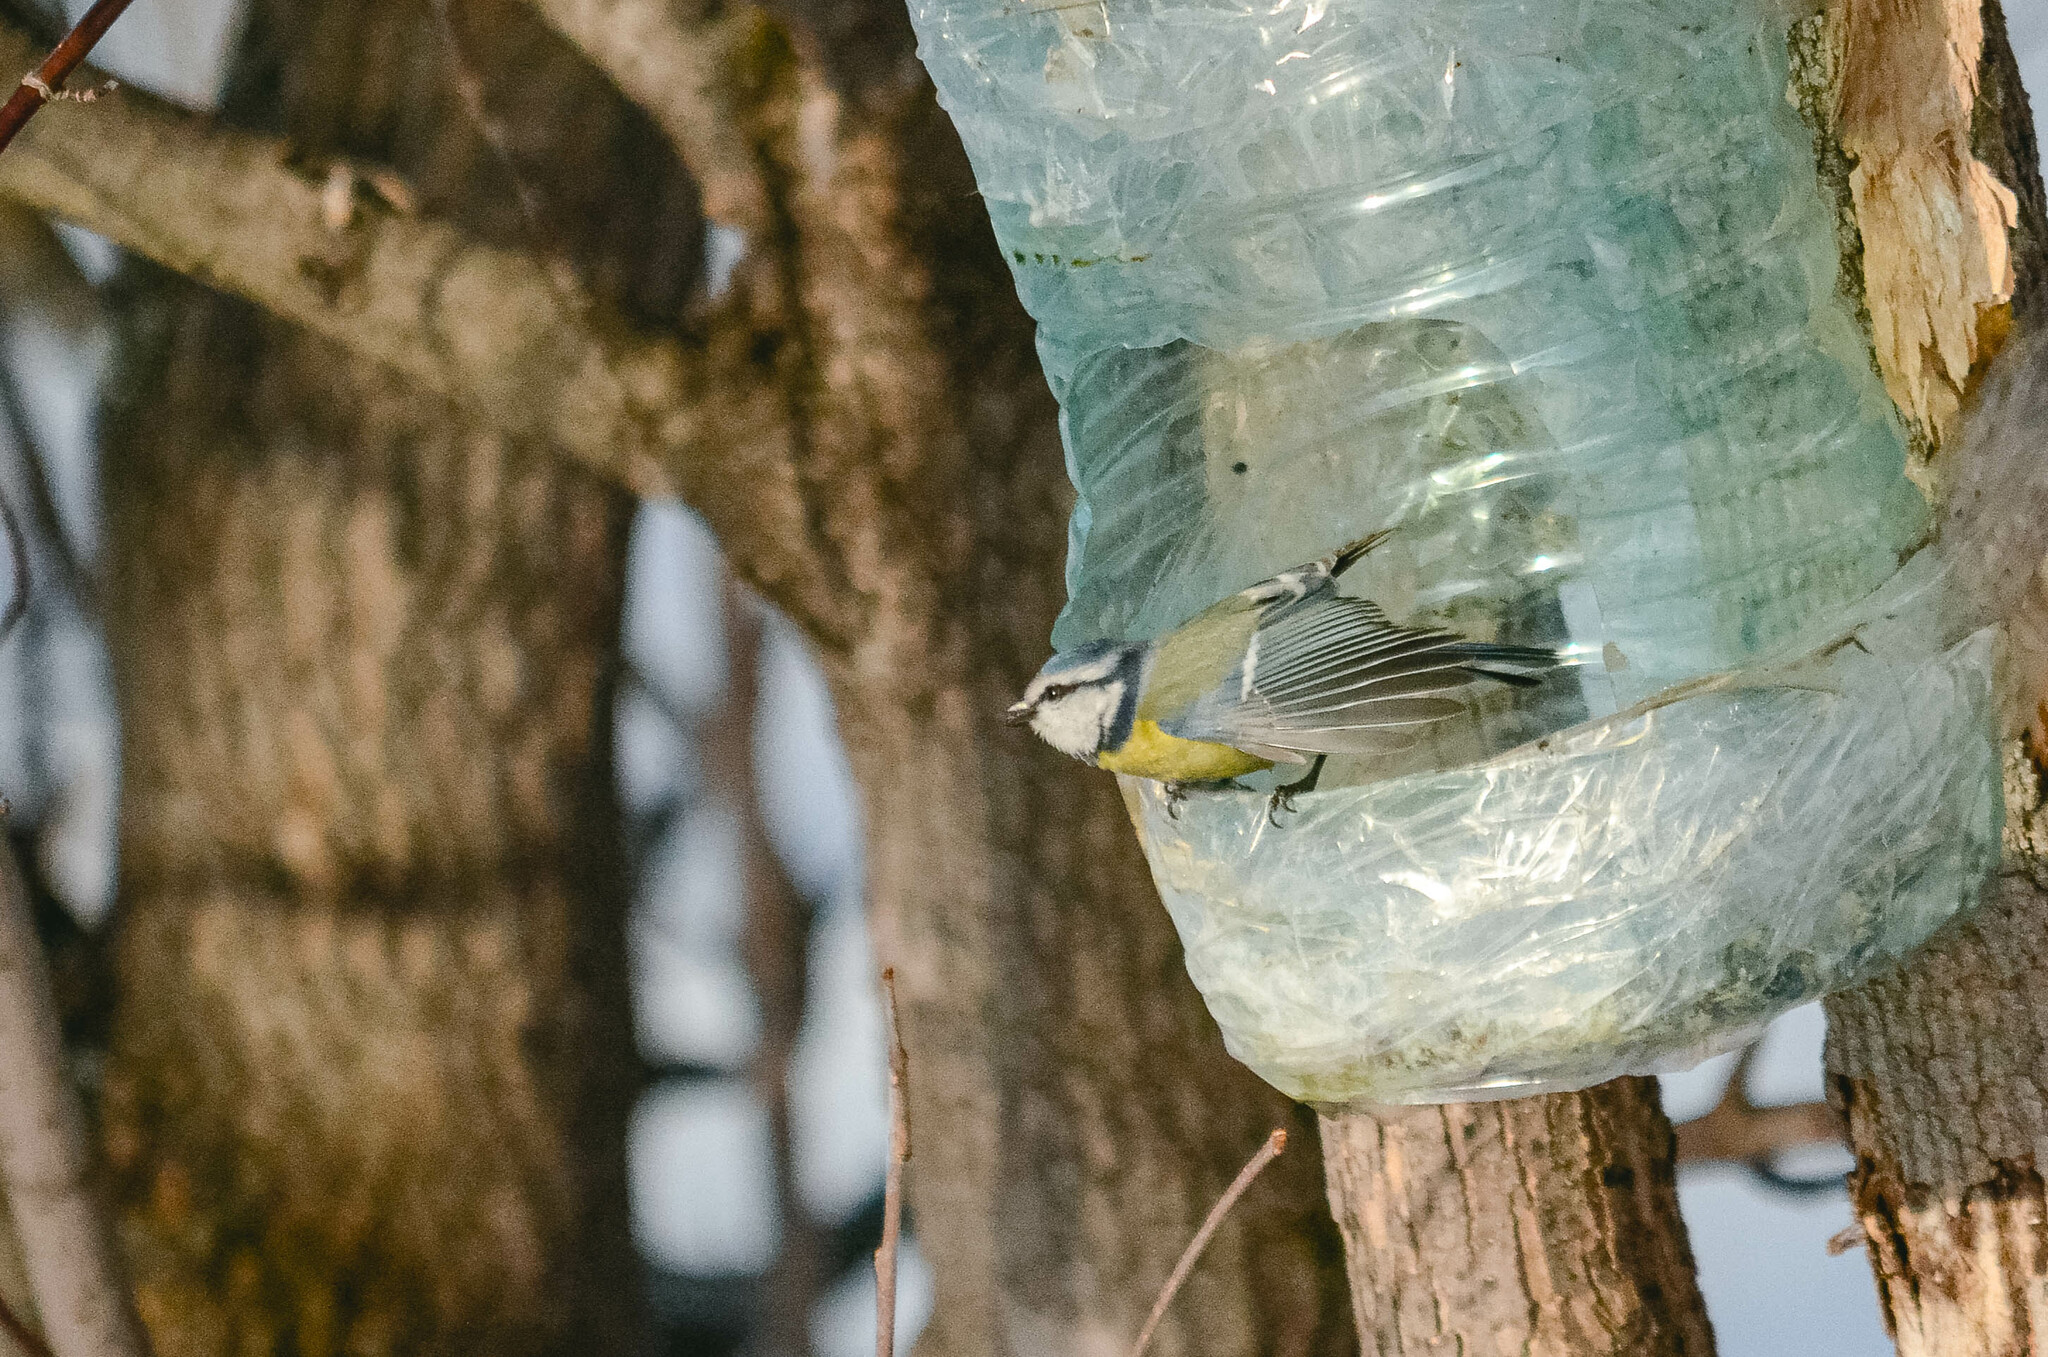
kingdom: Animalia
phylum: Chordata
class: Aves
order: Passeriformes
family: Paridae
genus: Cyanistes
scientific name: Cyanistes caeruleus
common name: Eurasian blue tit
